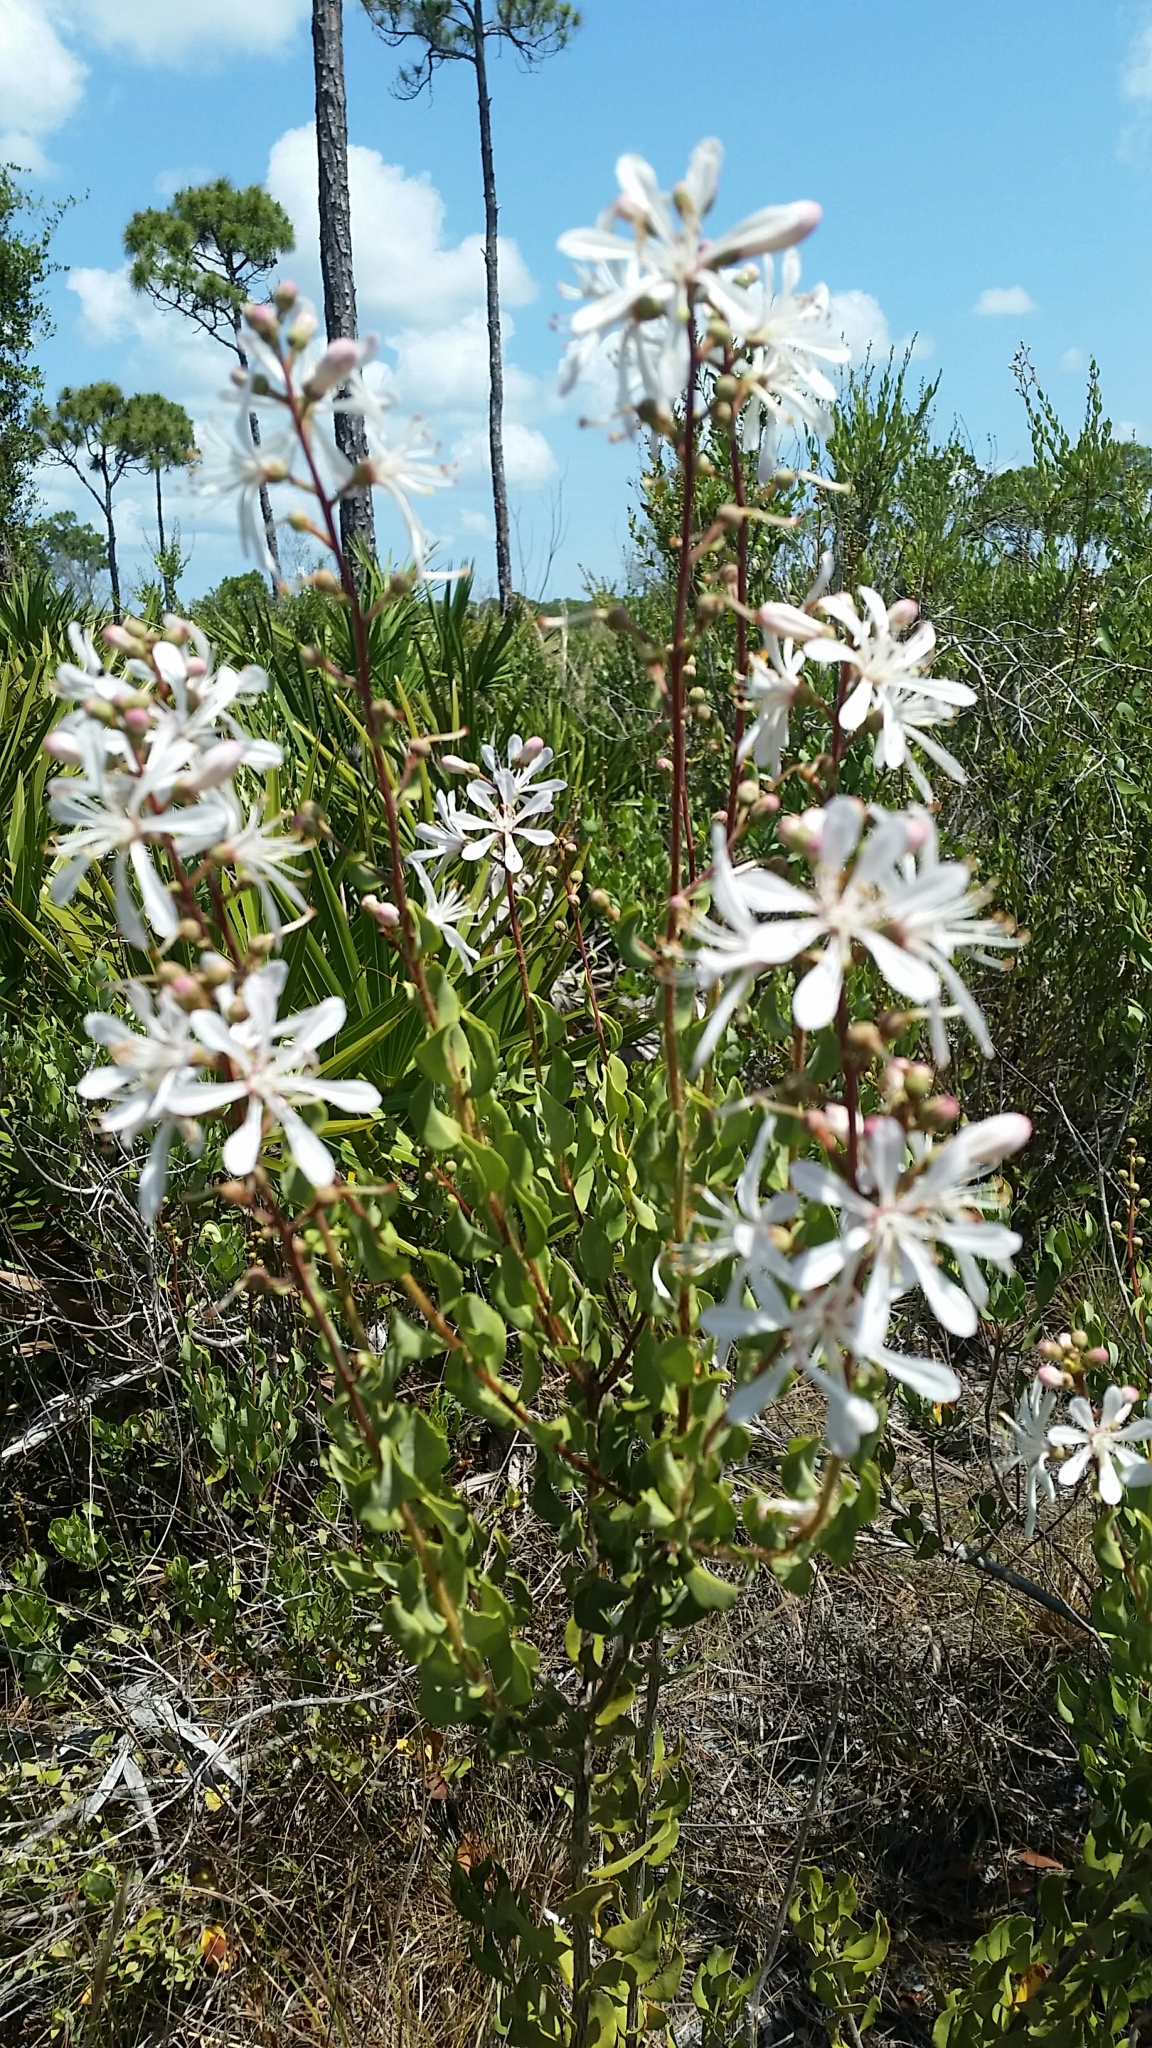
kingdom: Plantae
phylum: Tracheophyta
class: Magnoliopsida
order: Ericales
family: Ericaceae
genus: Bejaria
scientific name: Bejaria racemosa
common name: Tarflower
